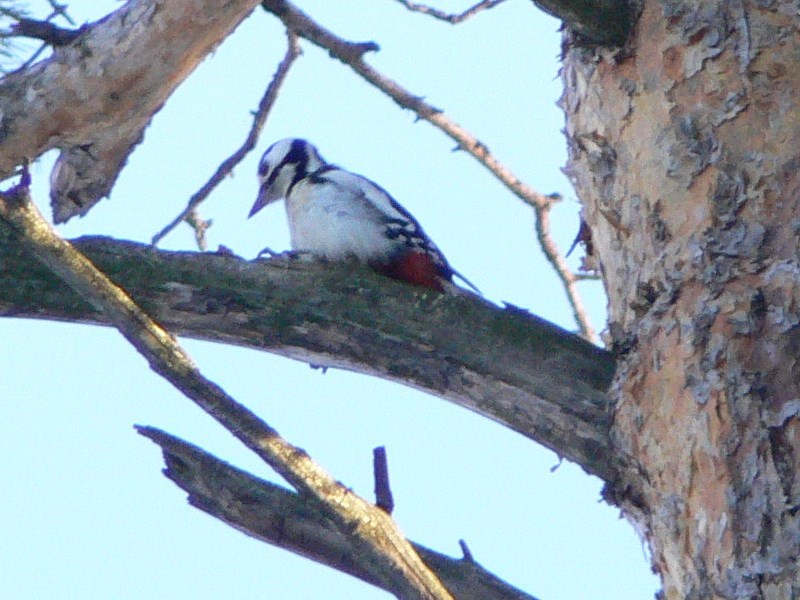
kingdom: Animalia
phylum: Chordata
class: Aves
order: Piciformes
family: Picidae
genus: Dendrocopos
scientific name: Dendrocopos major
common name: Great spotted woodpecker
